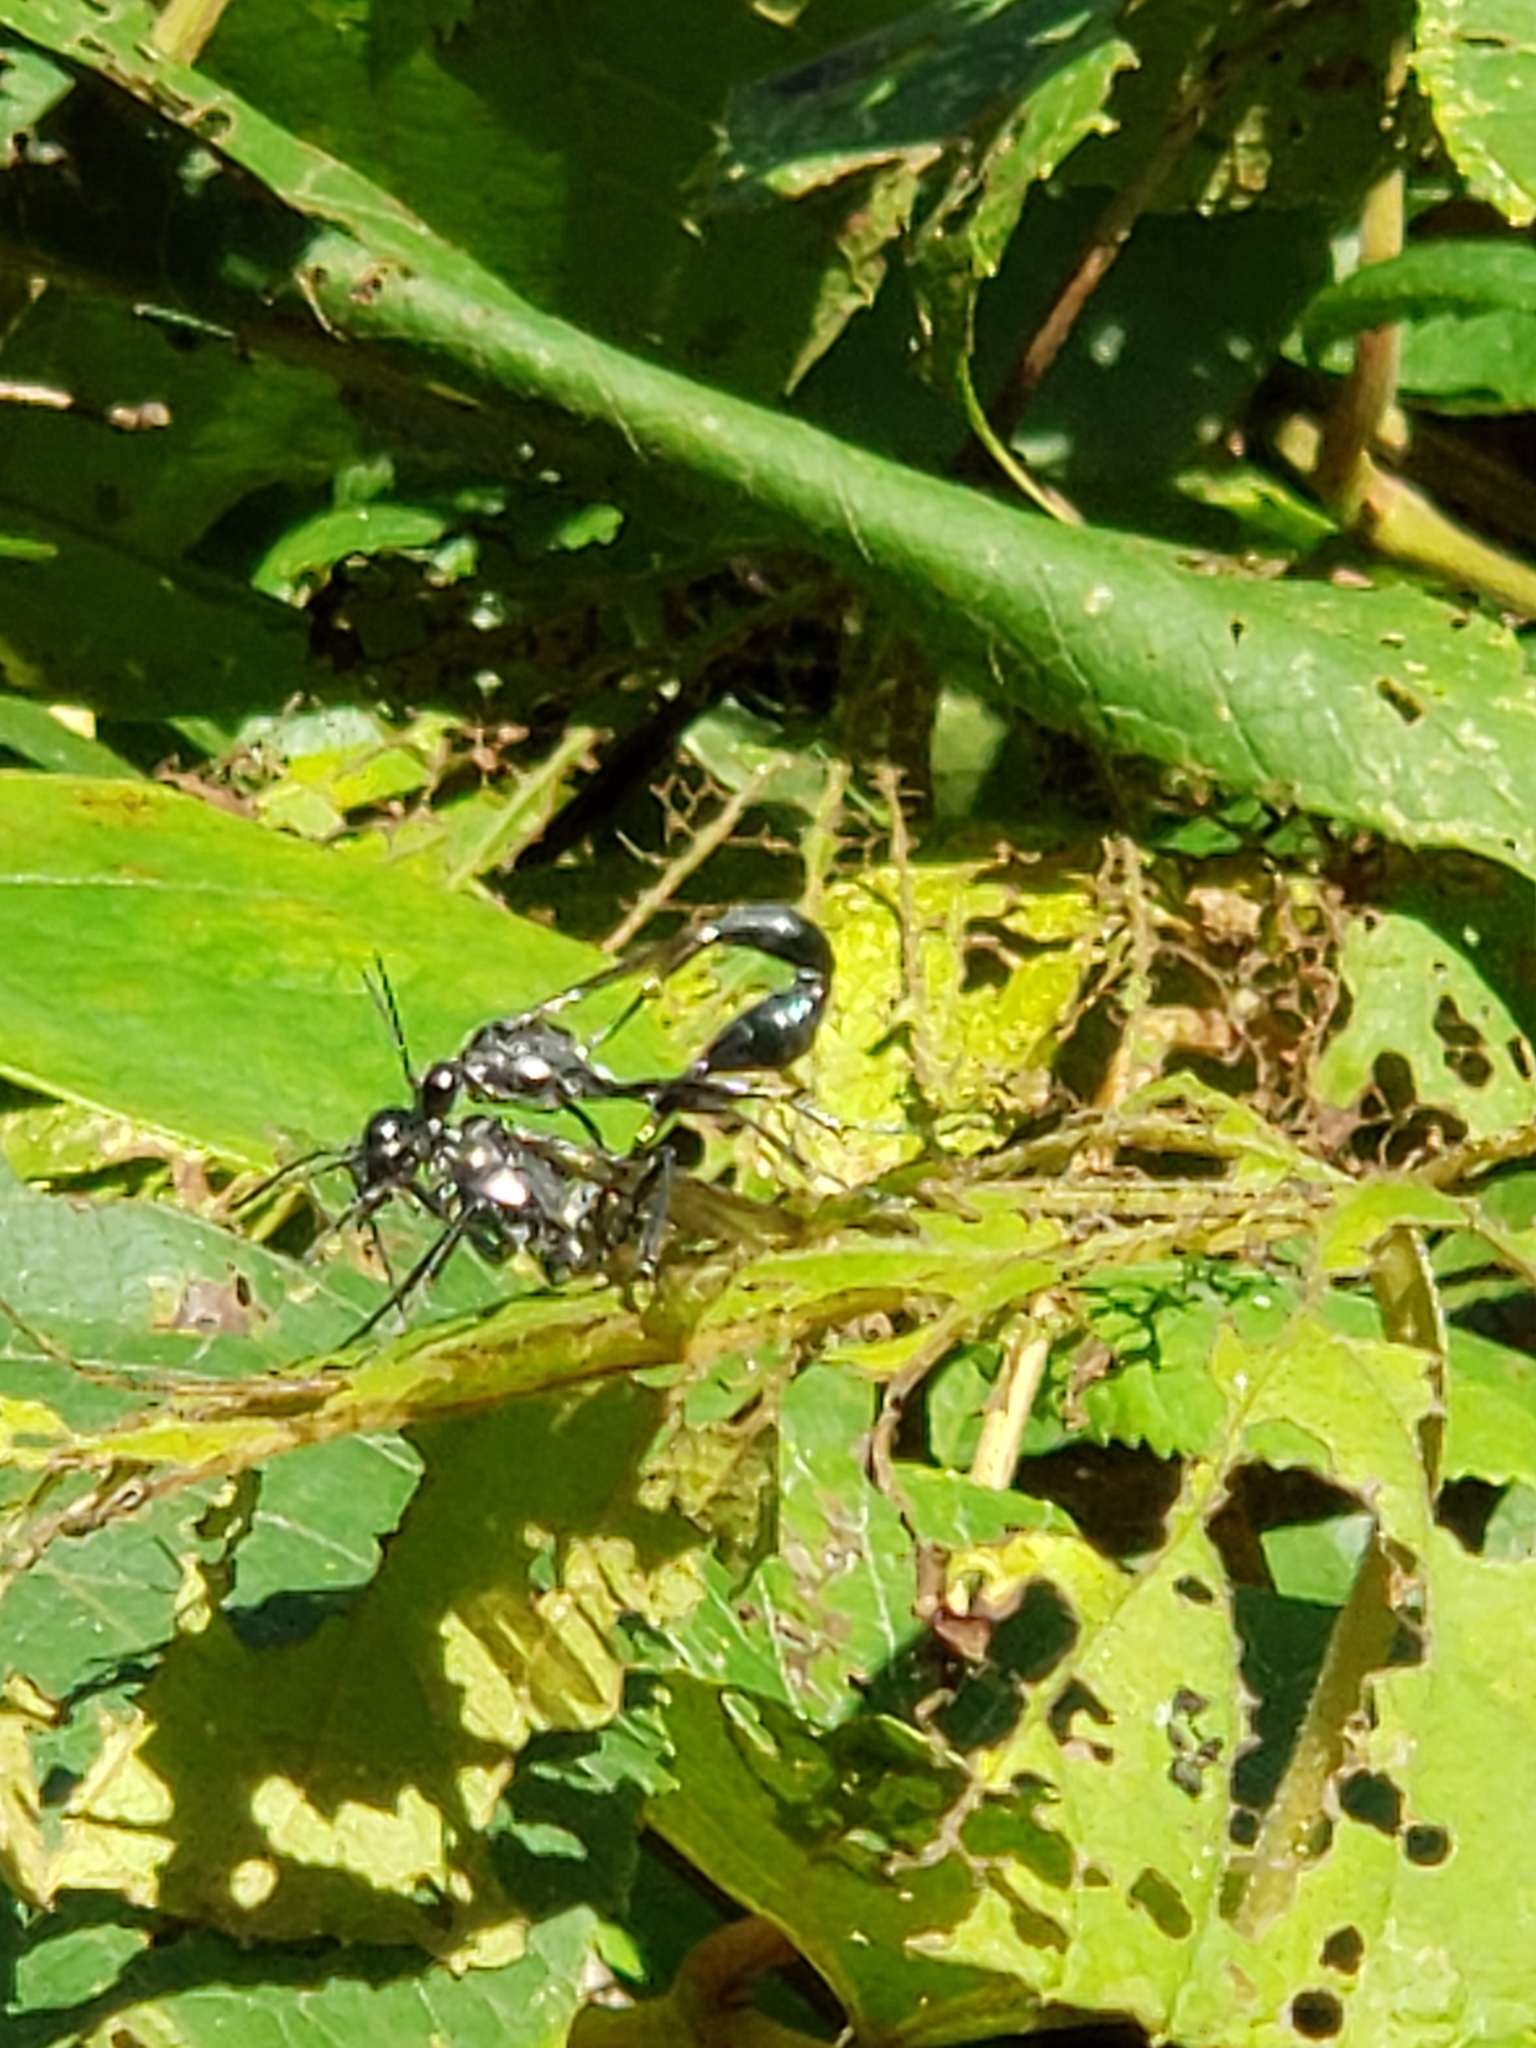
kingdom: Animalia
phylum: Arthropoda
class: Insecta
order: Hymenoptera
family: Sphecidae
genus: Eremnophila
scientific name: Eremnophila aureonotata
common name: Gold-marked thread-waisted wasp
